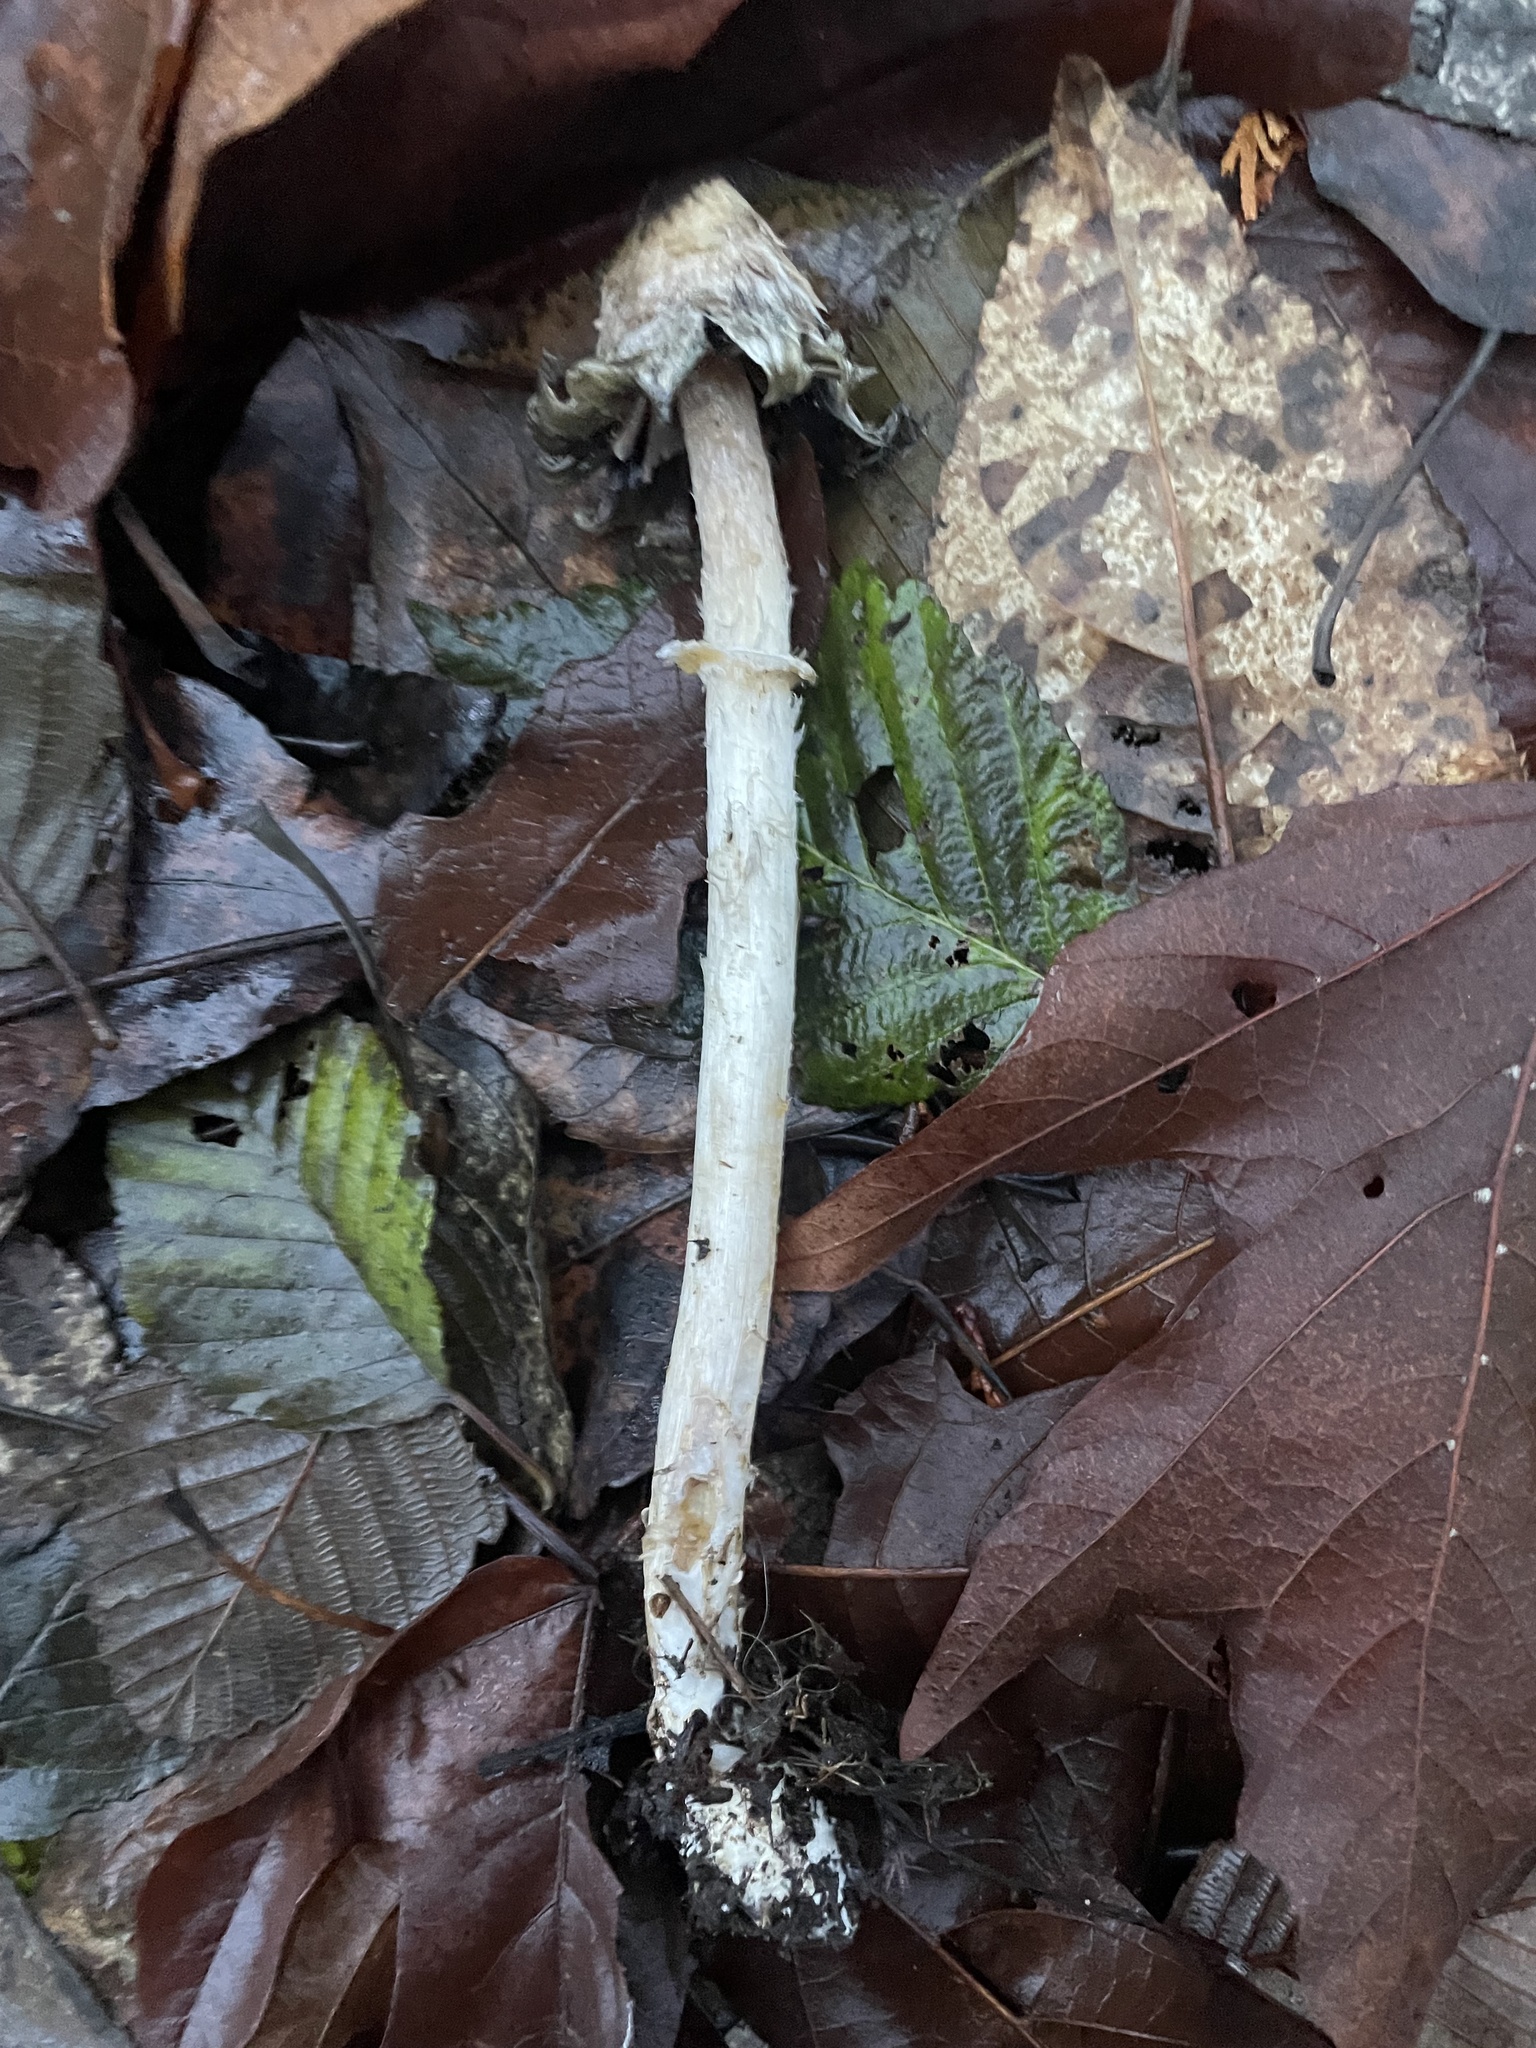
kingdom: Fungi
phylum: Basidiomycota
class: Agaricomycetes
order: Agaricales
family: Agaricaceae
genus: Coprinus
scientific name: Coprinus comatus
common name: Lawyer's wig
